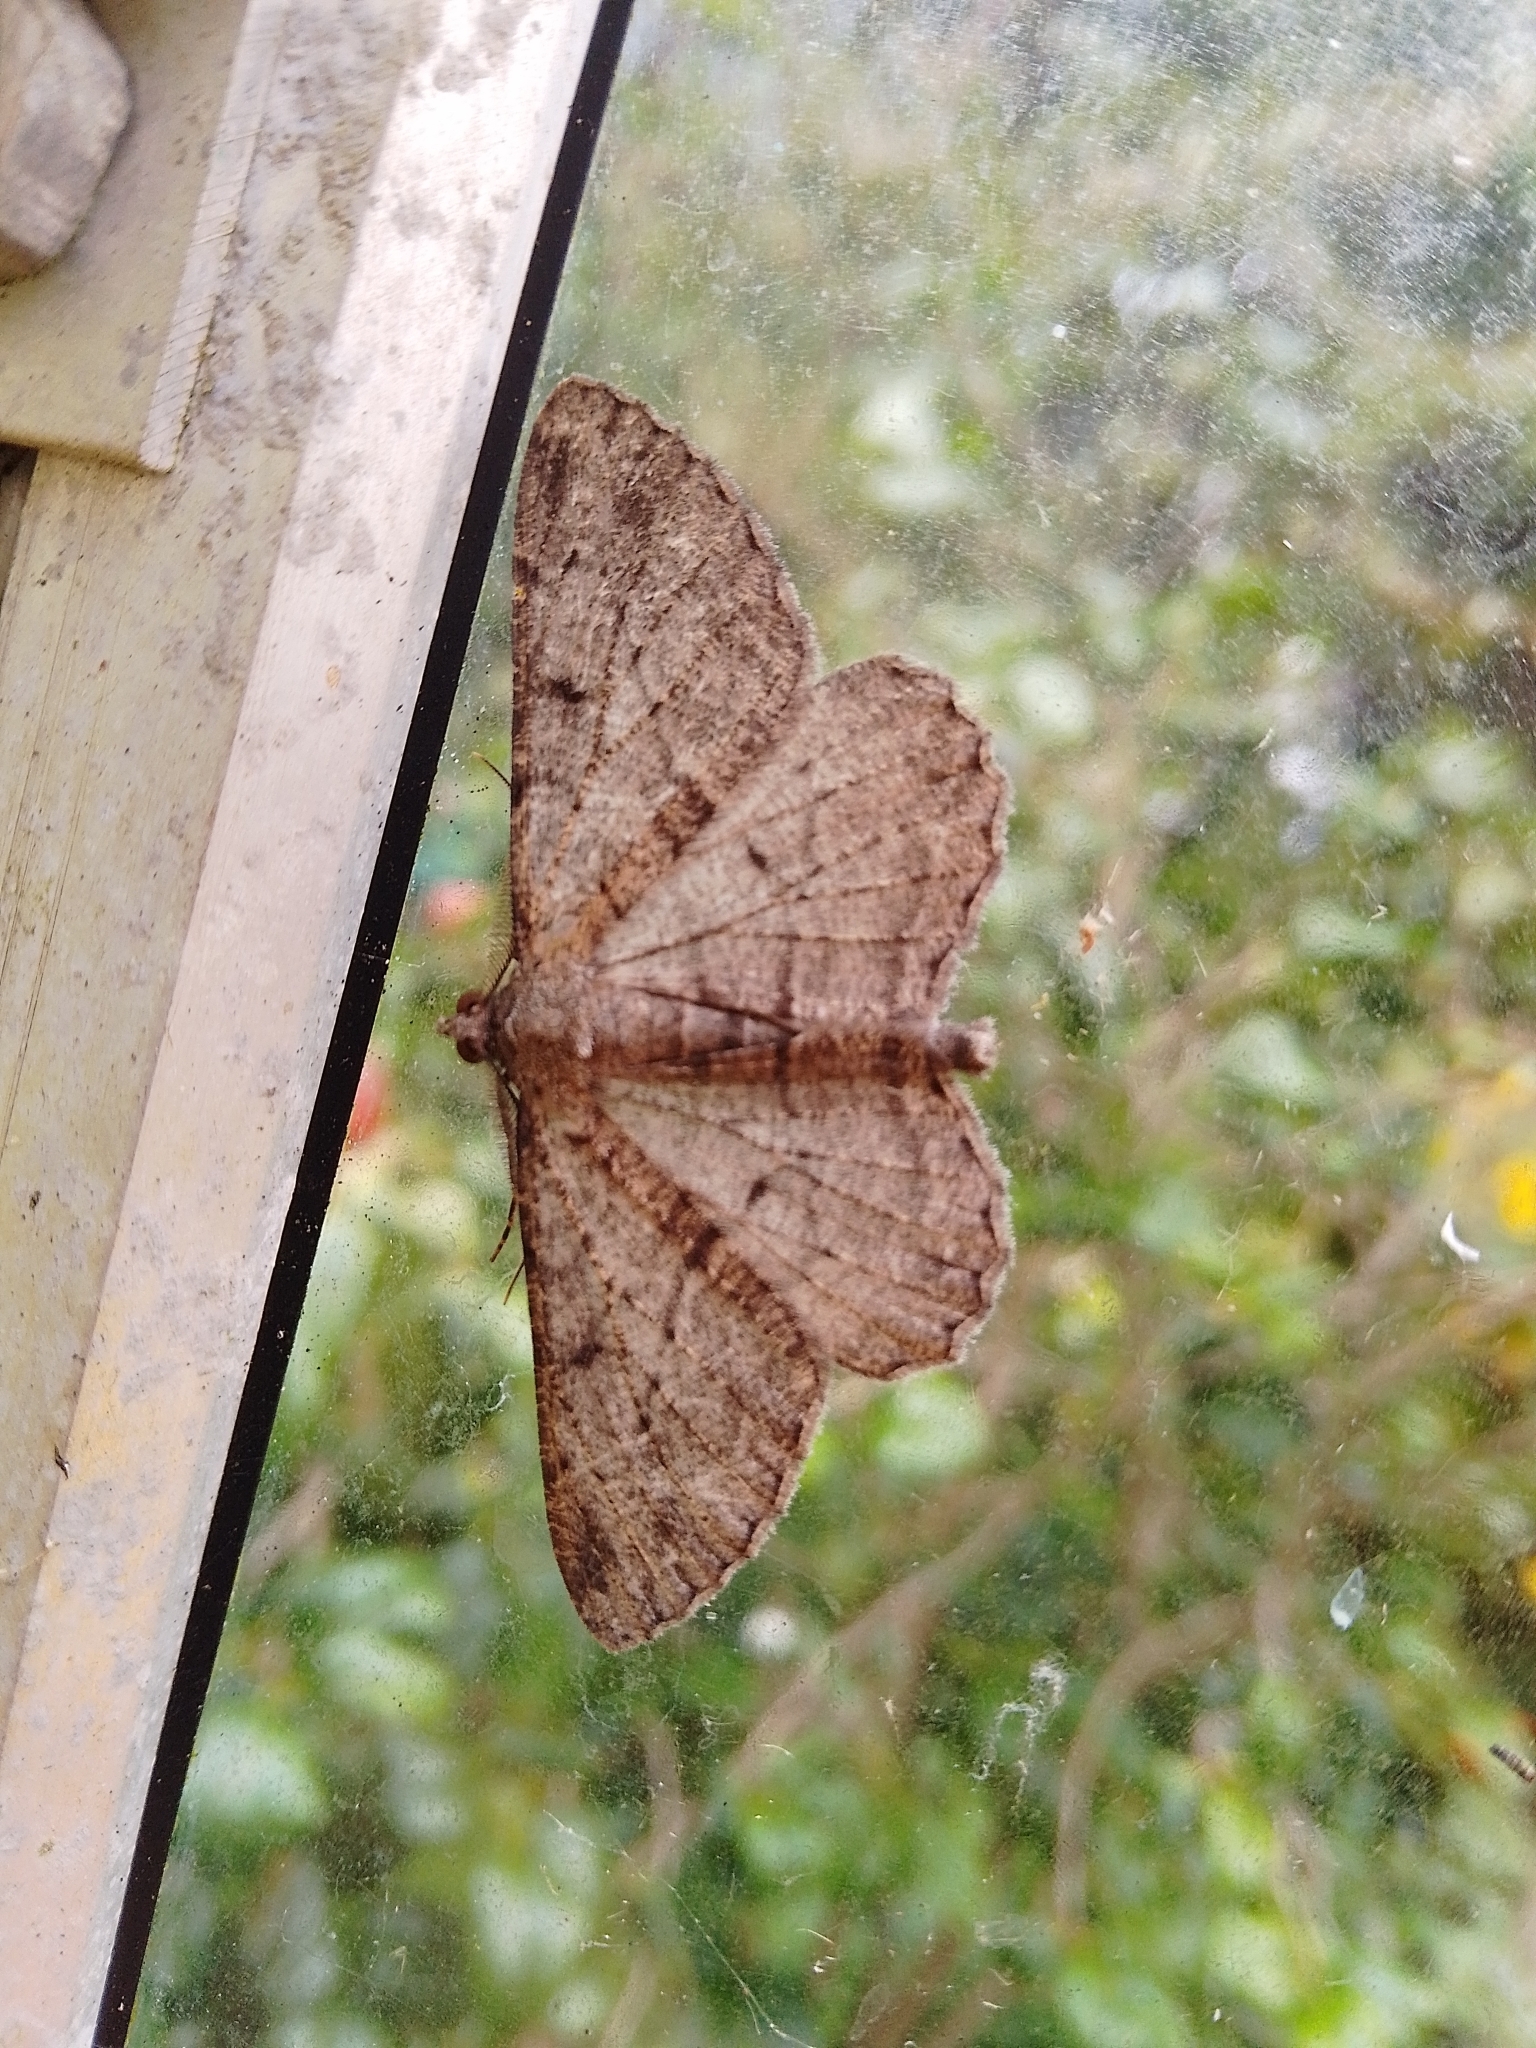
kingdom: Animalia
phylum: Arthropoda
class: Insecta
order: Lepidoptera
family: Geometridae
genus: Peribatodes
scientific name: Peribatodes rhomboidaria
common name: Willow beauty
